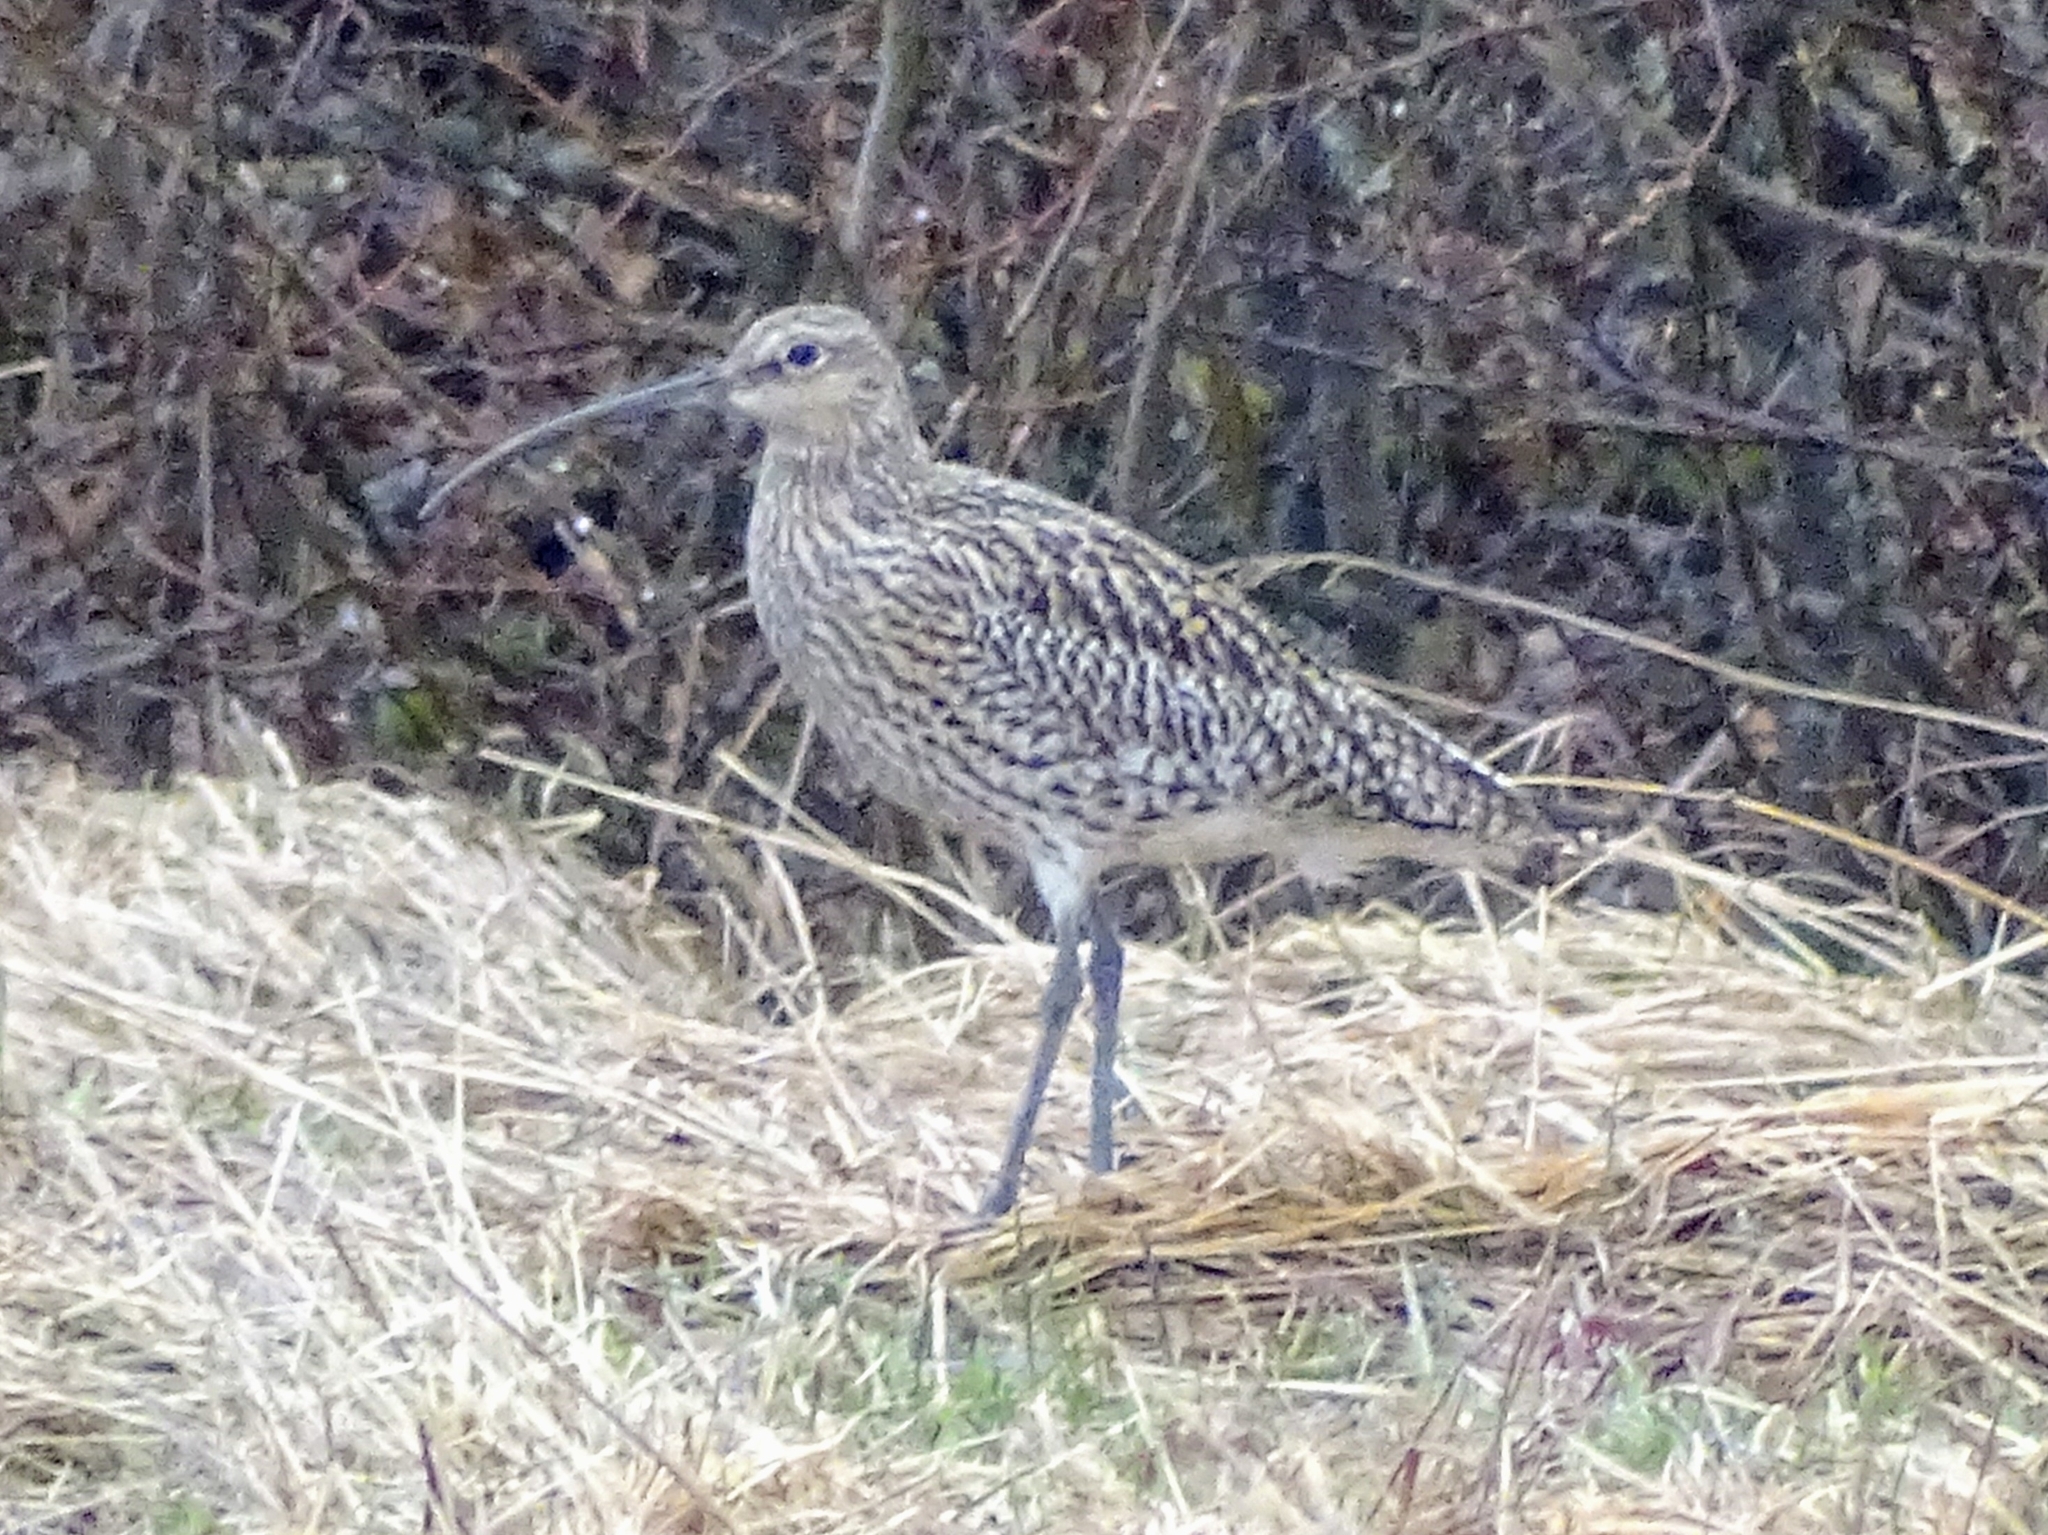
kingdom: Animalia
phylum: Chordata
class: Aves
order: Charadriiformes
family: Scolopacidae
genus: Numenius
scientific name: Numenius arquata
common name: Eurasian curlew
